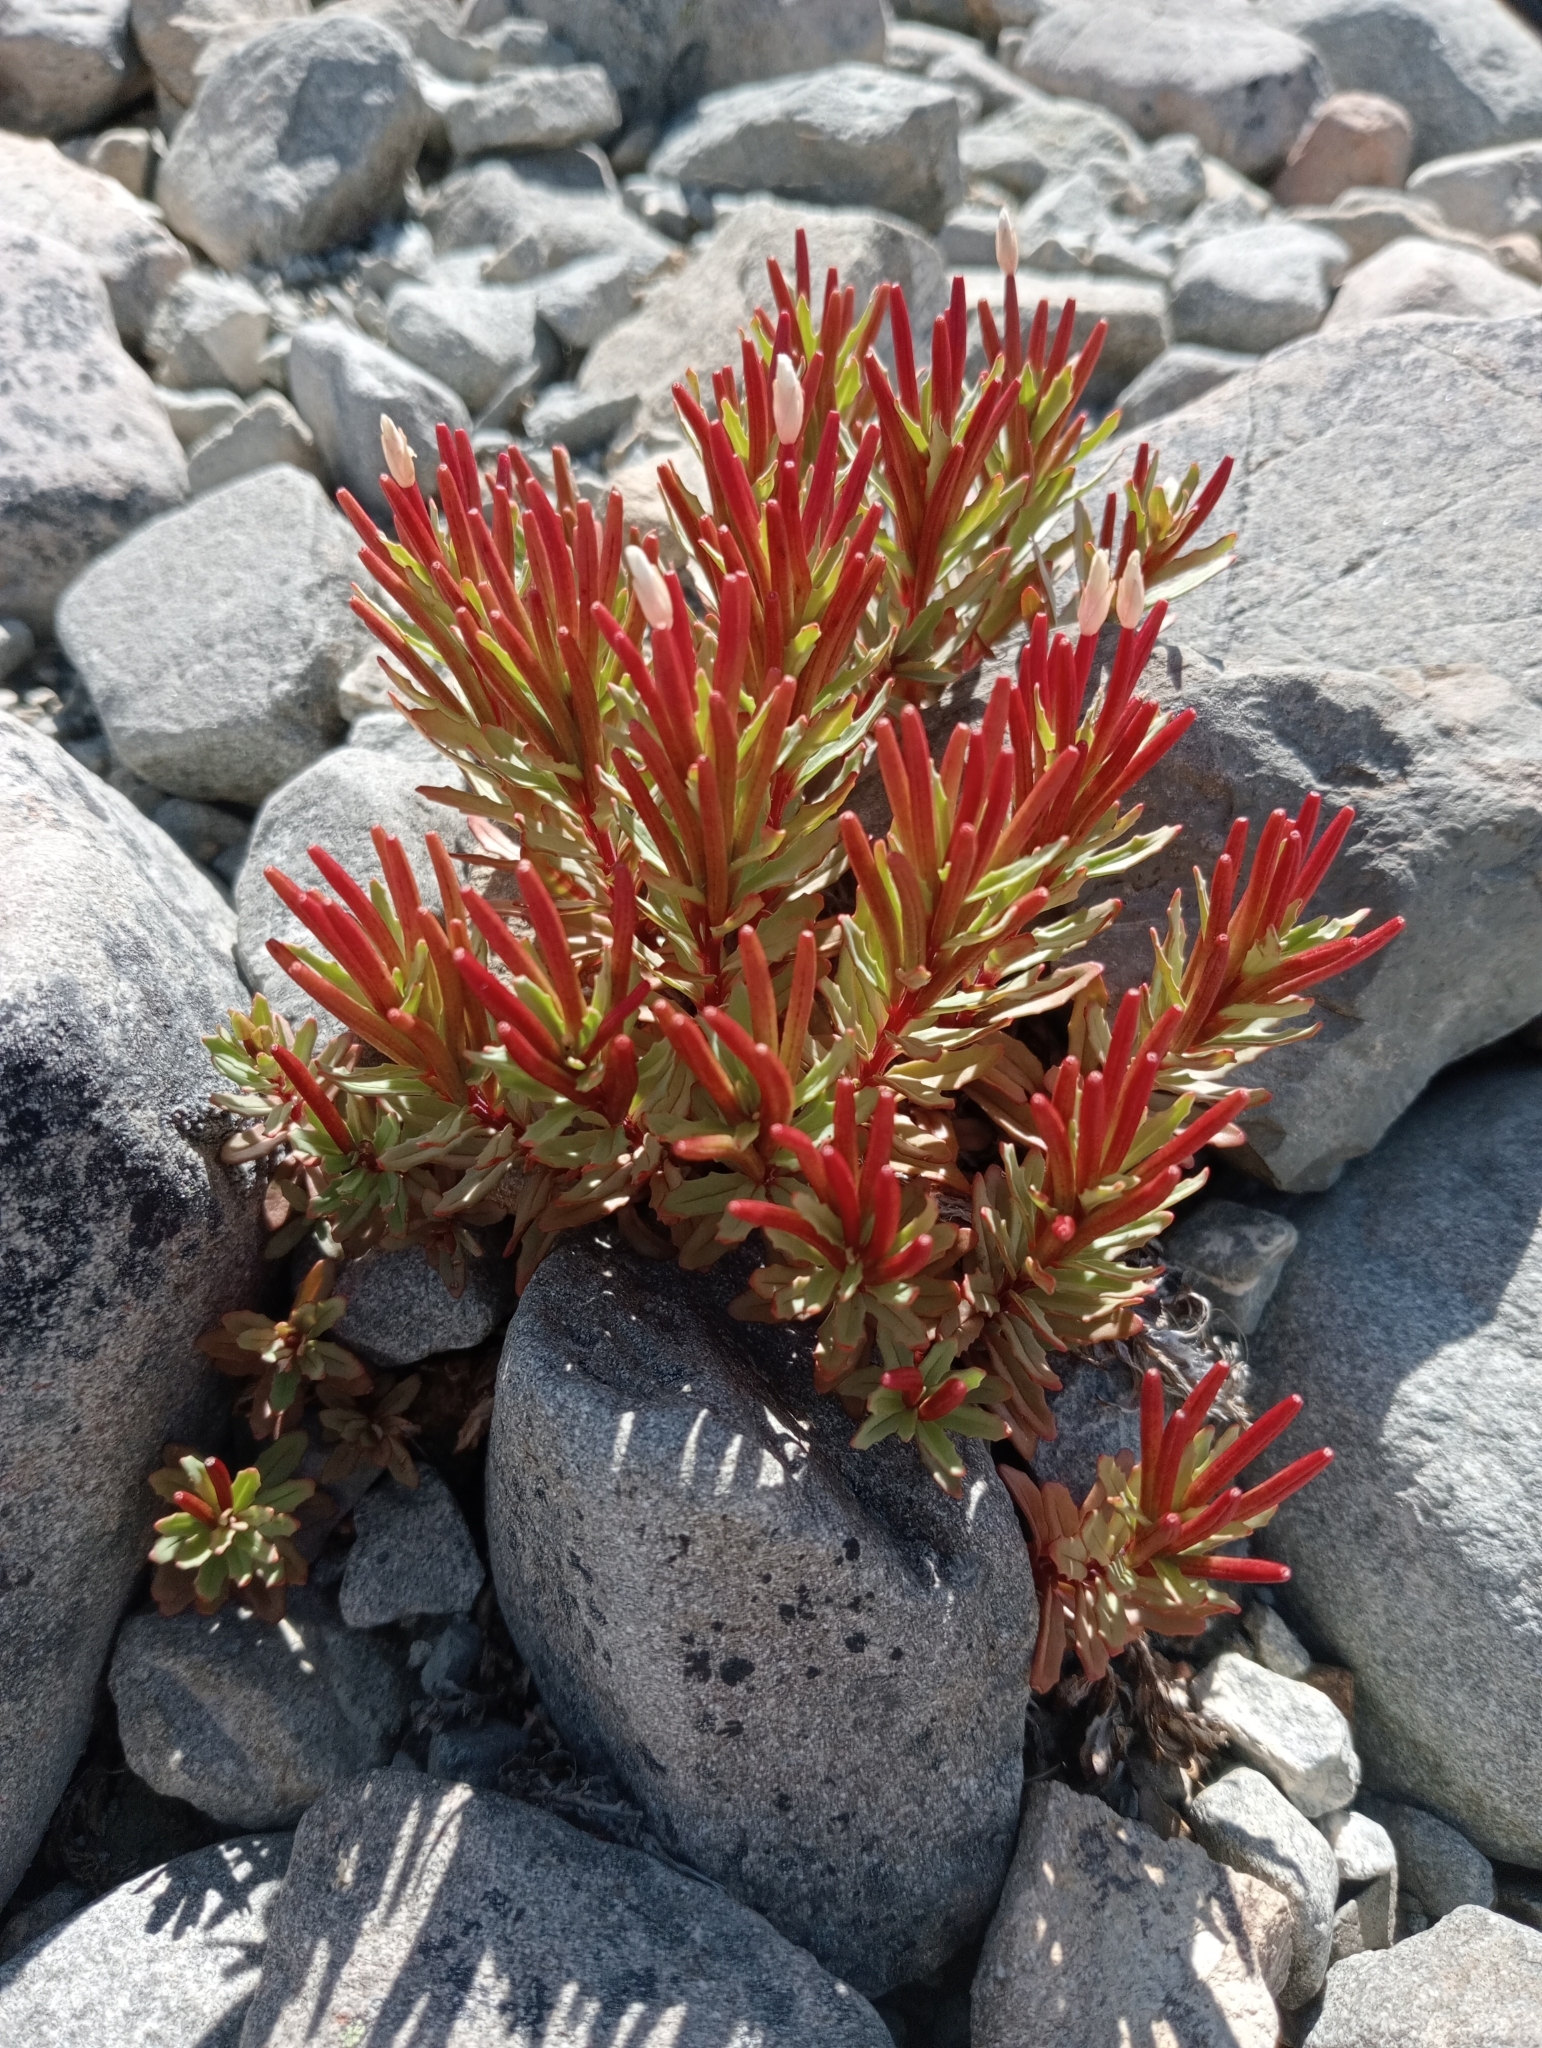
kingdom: Plantae
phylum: Tracheophyta
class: Magnoliopsida
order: Myrtales
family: Onagraceae
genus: Epilobium
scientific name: Epilobium pycnostachyum
